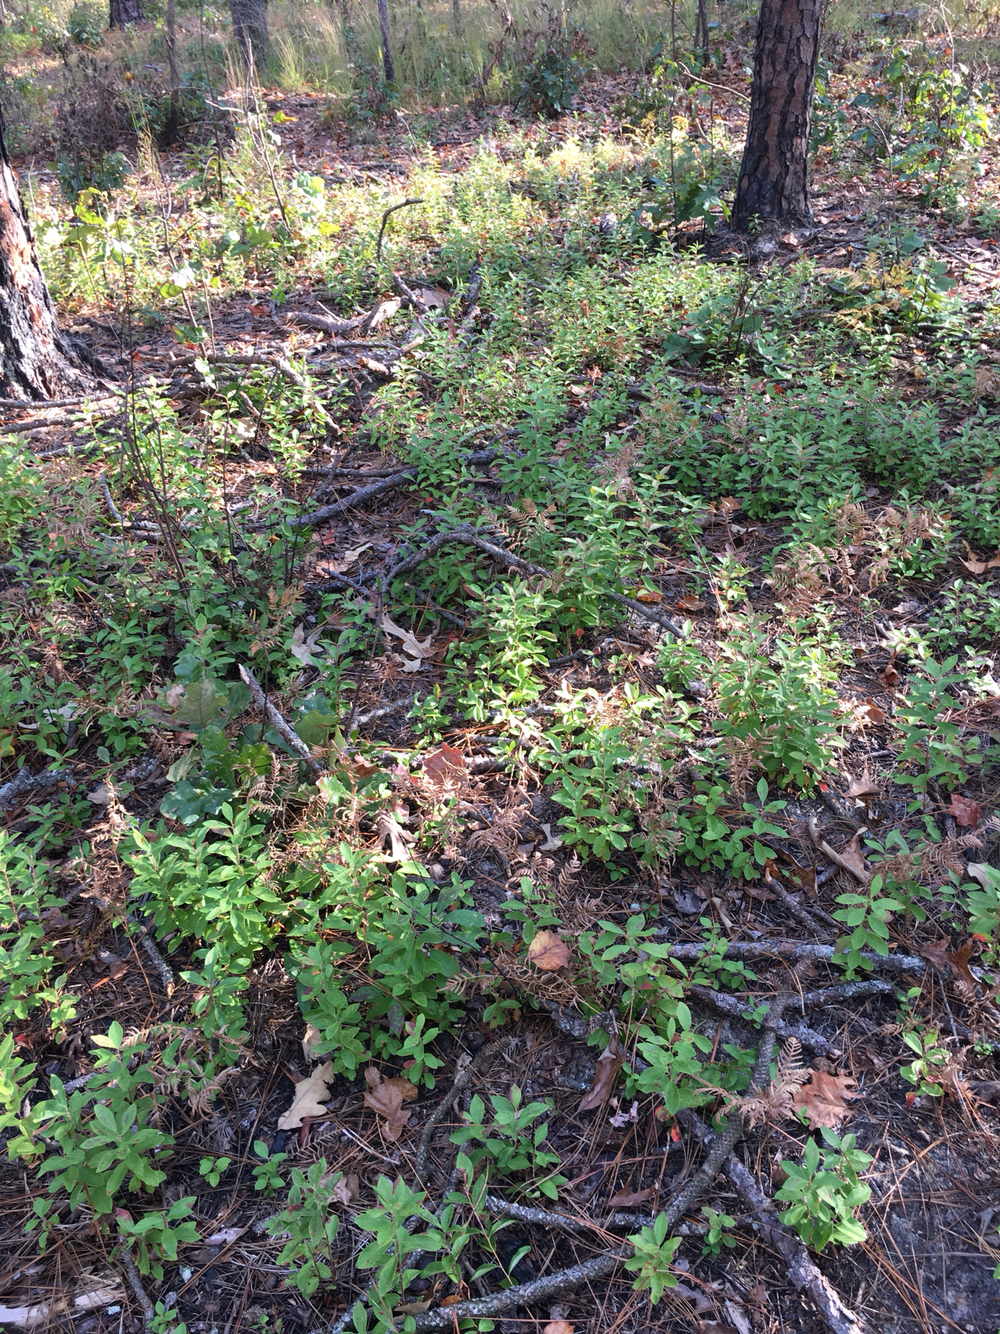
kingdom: Plantae
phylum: Tracheophyta
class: Magnoliopsida
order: Ericales
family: Ericaceae
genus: Gaylussacia
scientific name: Gaylussacia frondosa
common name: Dangleberry
